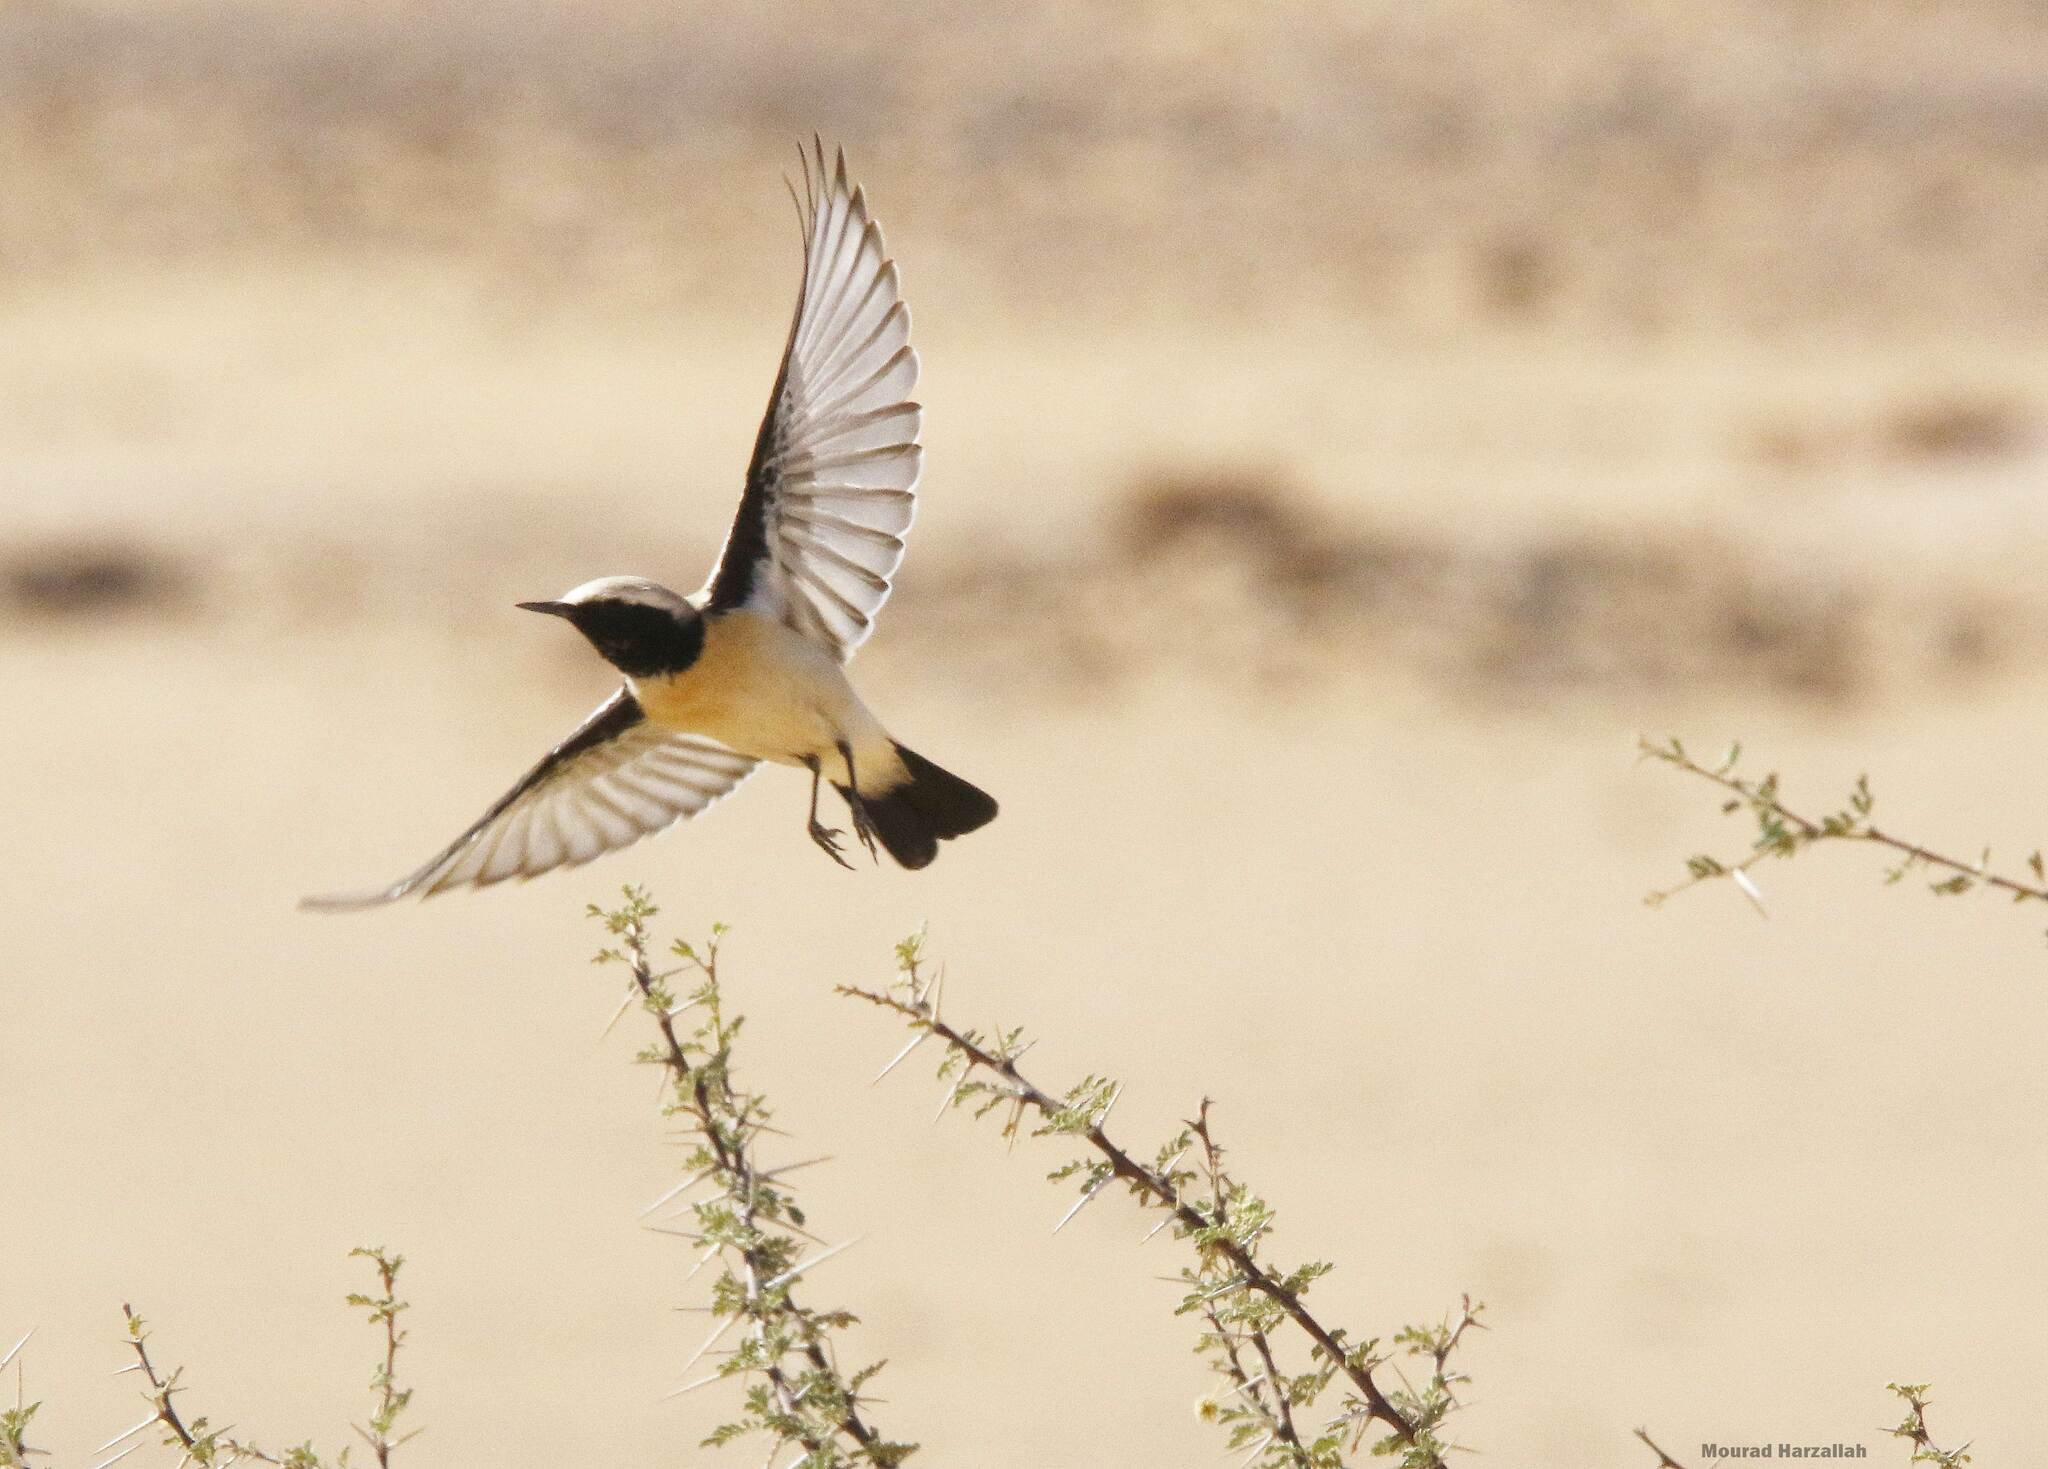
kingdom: Animalia
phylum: Chordata
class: Aves
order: Passeriformes
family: Muscicapidae
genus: Oenanthe
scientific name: Oenanthe deserti
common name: Desert wheatear
